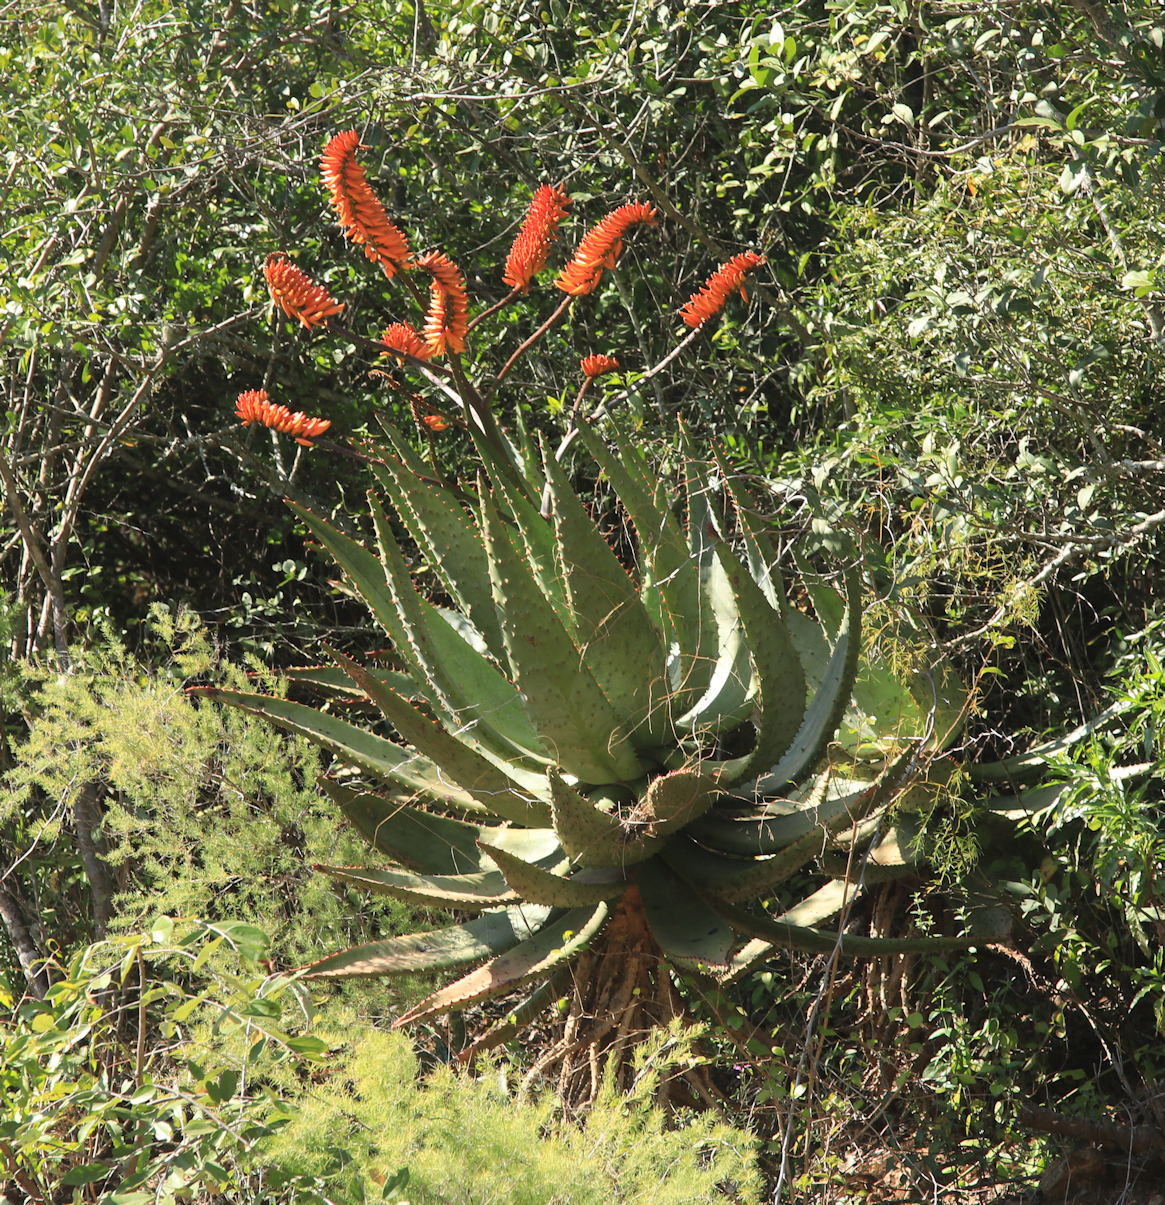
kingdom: Plantae
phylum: Tracheophyta
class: Liliopsida
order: Asparagales
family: Asphodelaceae
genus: Aloe
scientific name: Aloe marlothii
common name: Flat-flowered aloe
